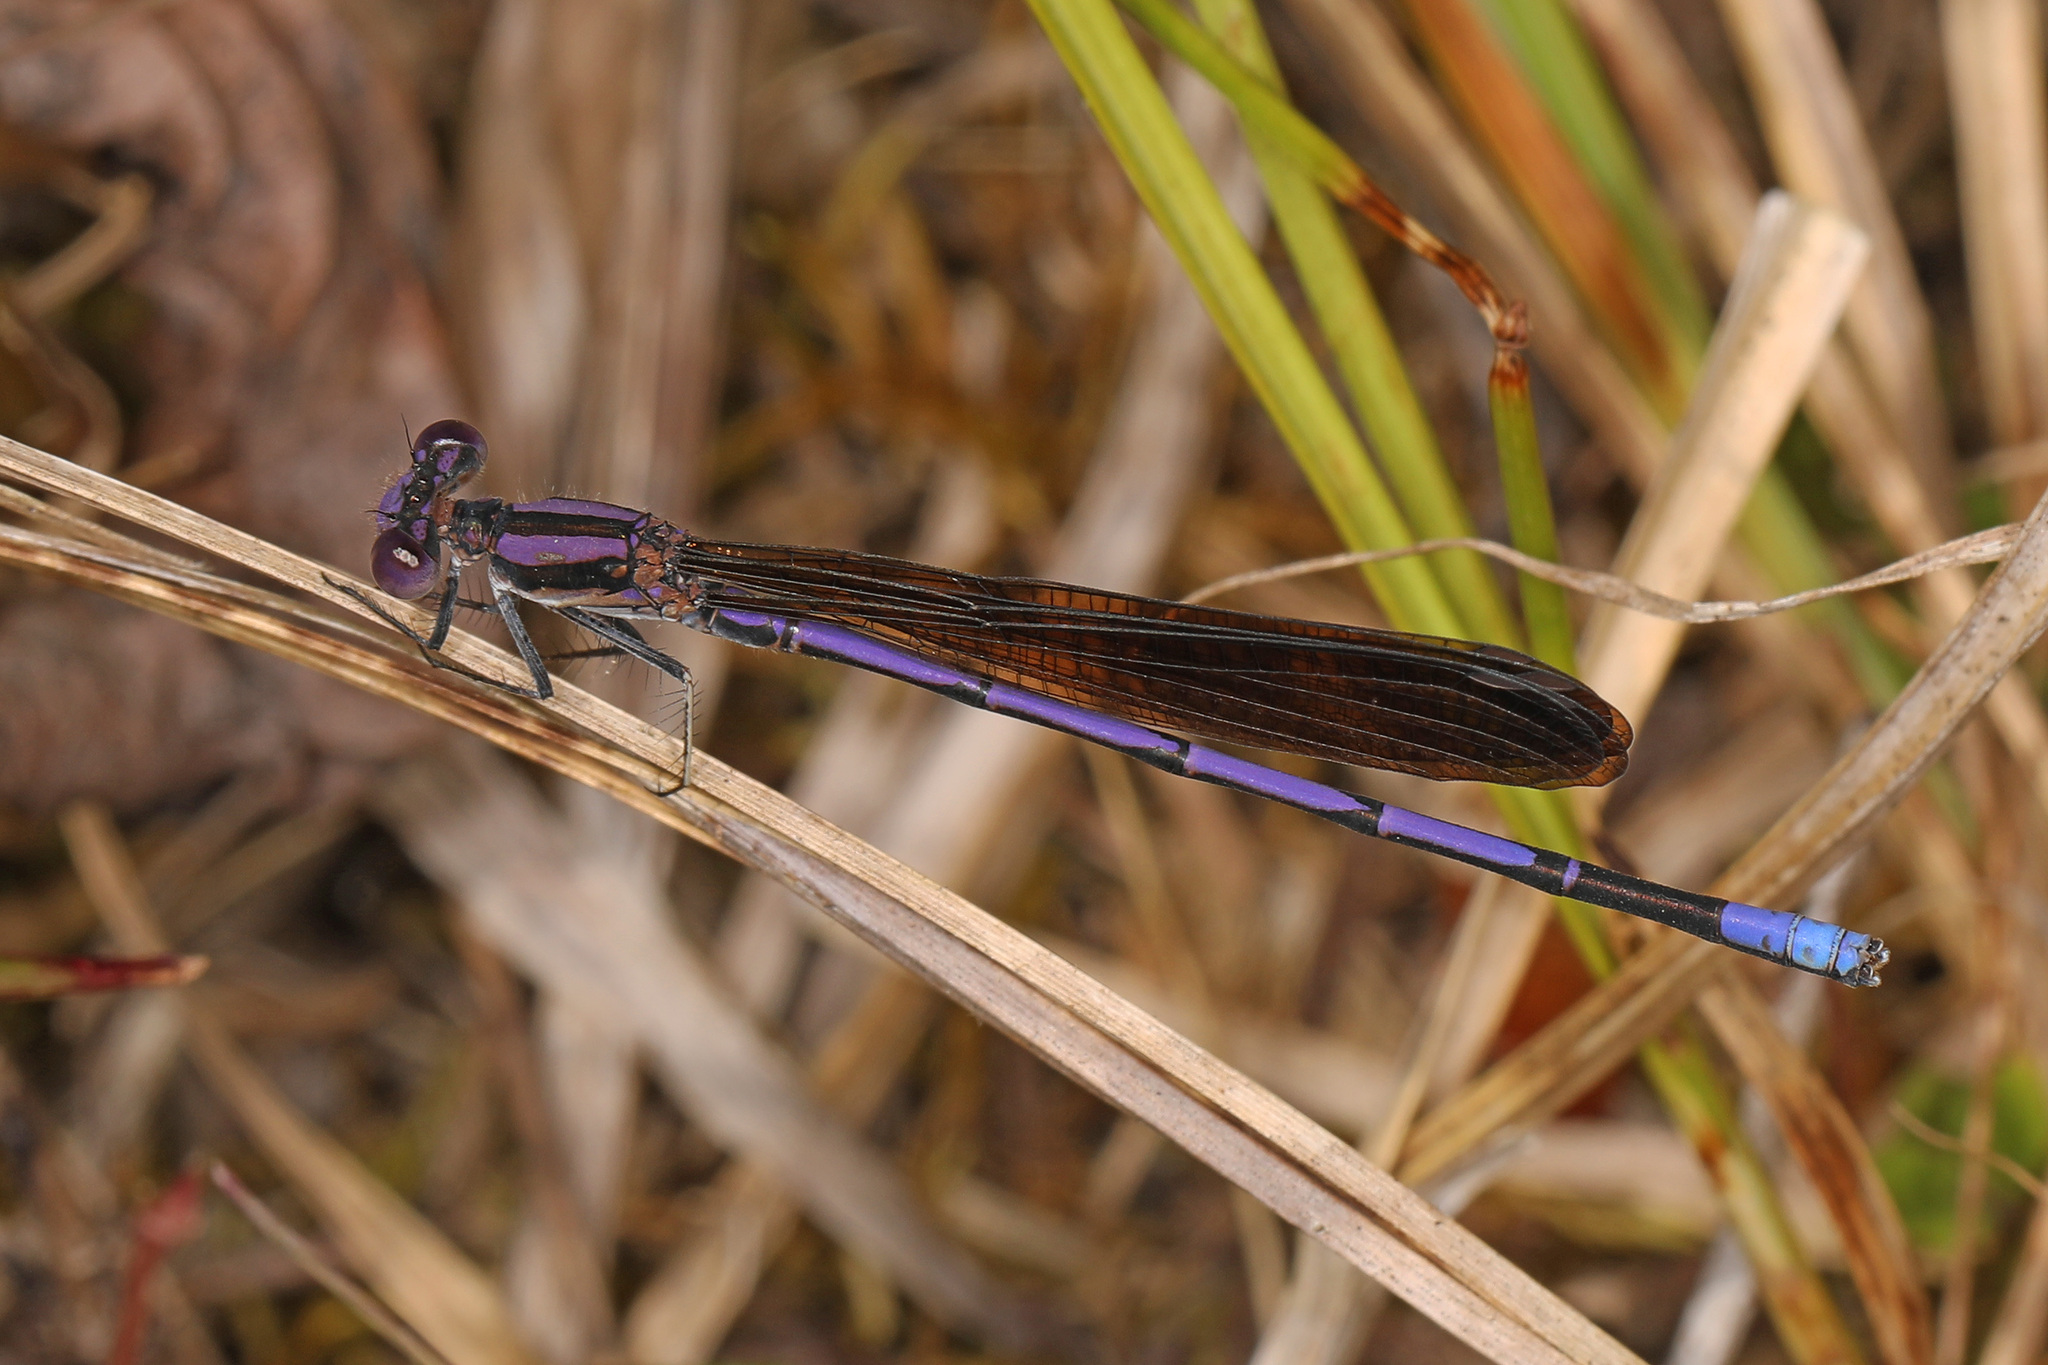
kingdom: Animalia
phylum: Arthropoda
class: Insecta
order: Odonata
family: Coenagrionidae
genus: Argia
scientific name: Argia fumipennis
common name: Variable dancer
